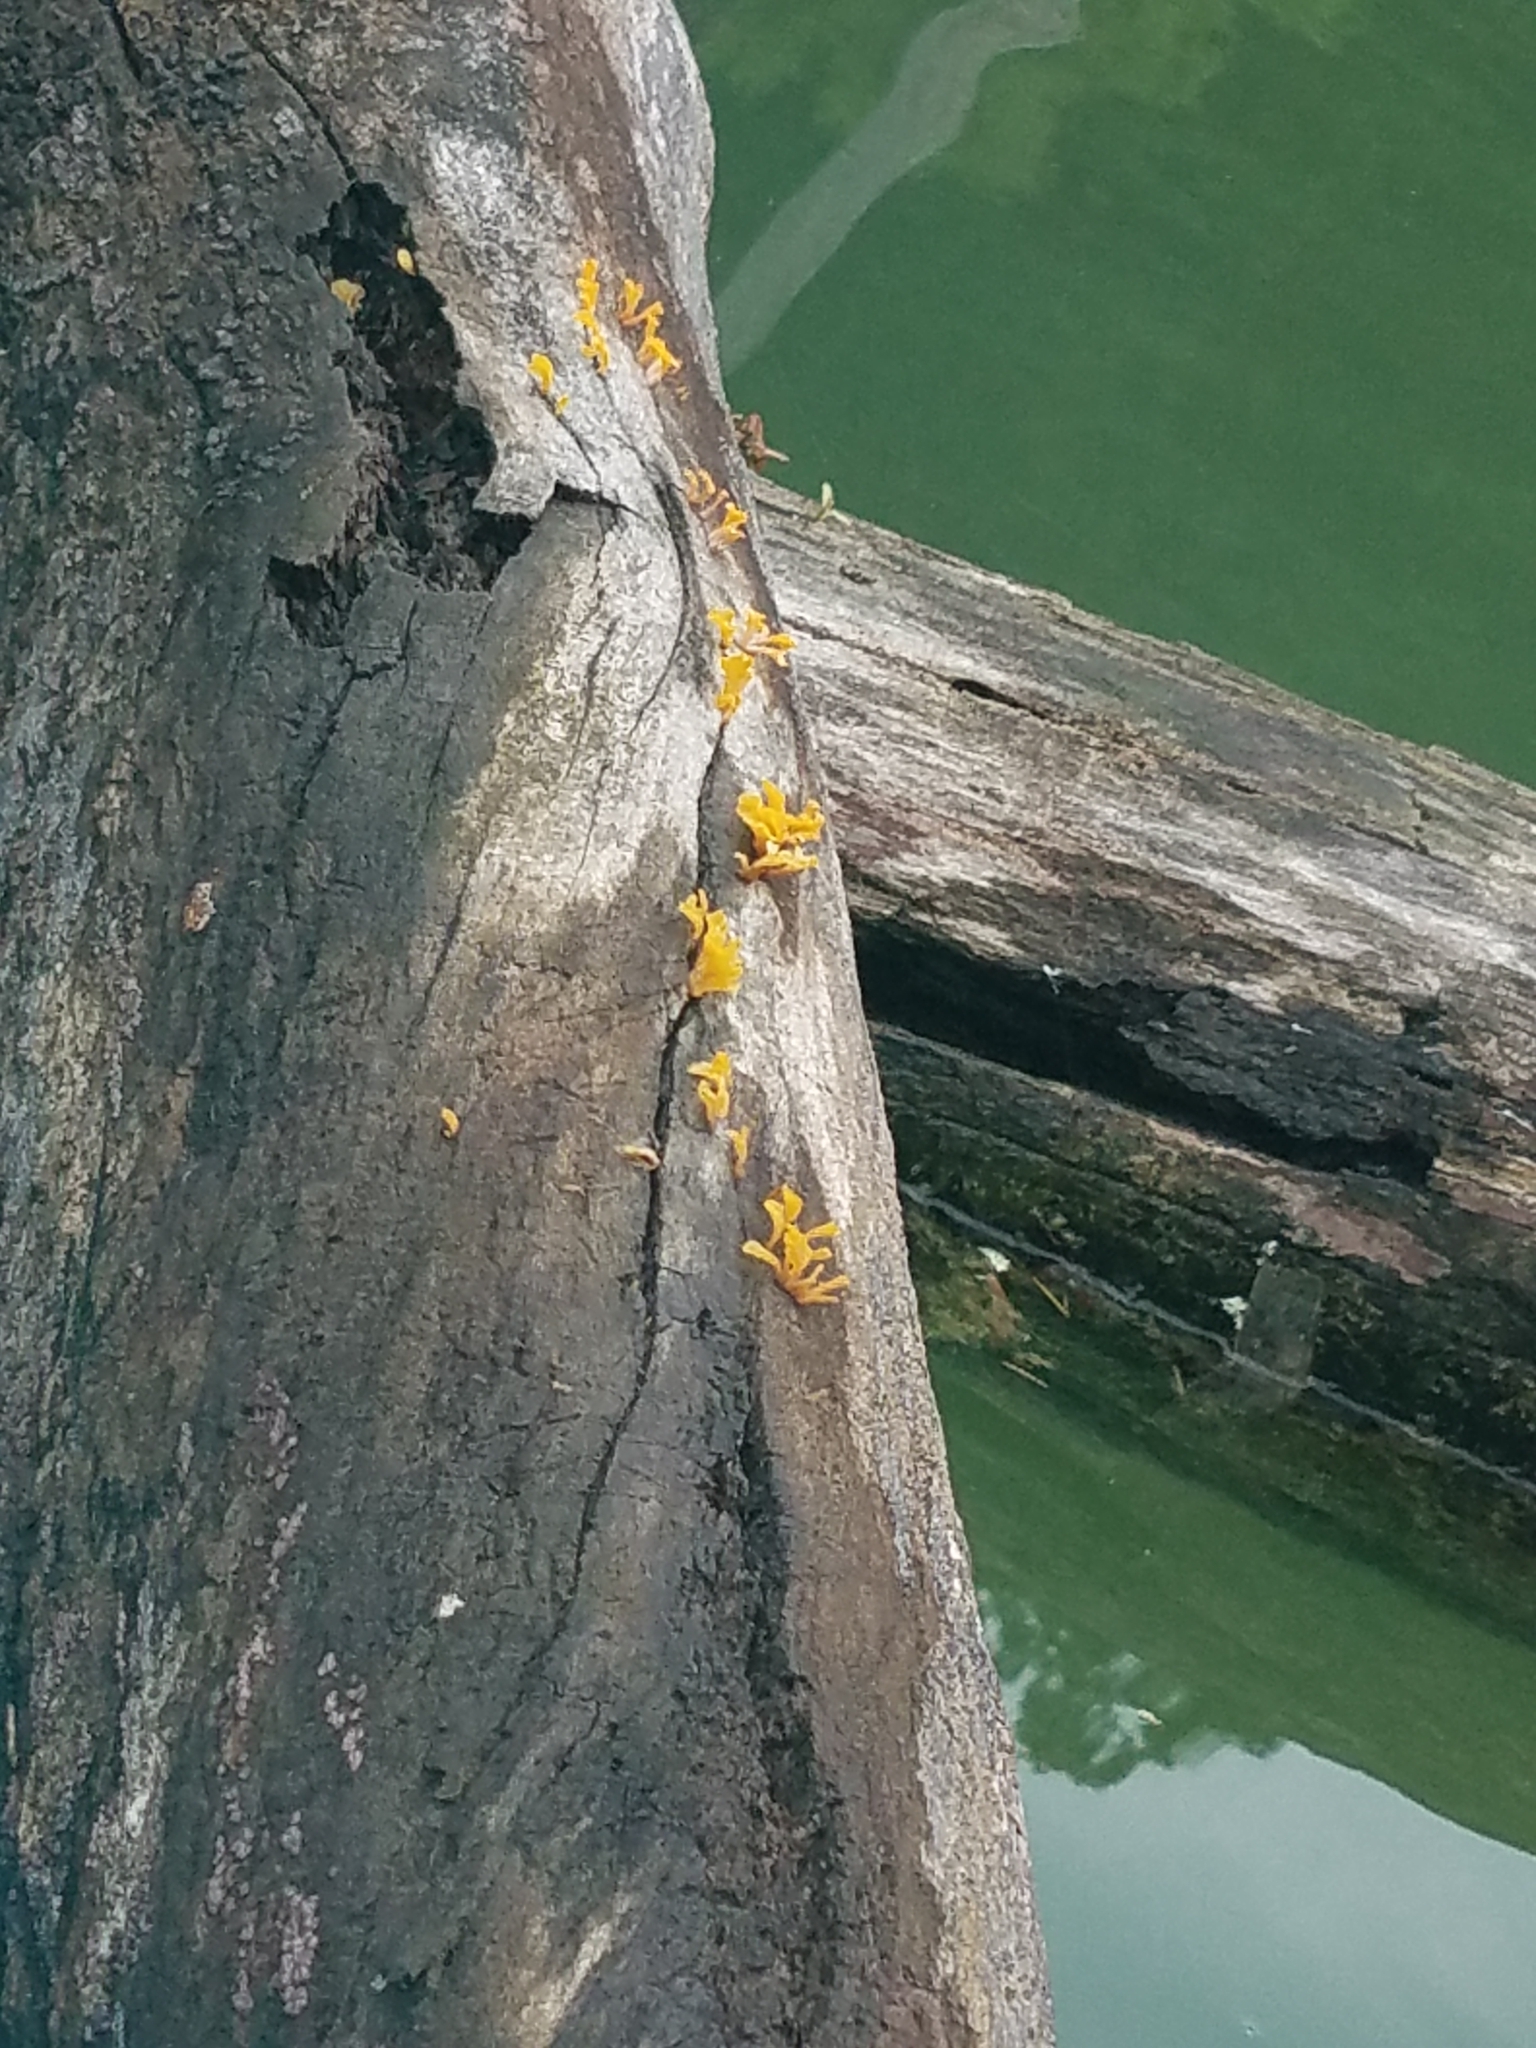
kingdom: Fungi
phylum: Basidiomycota
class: Dacrymycetes
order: Dacrymycetales
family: Dacrymycetaceae
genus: Dacrymyces
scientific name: Dacrymyces spathularius
